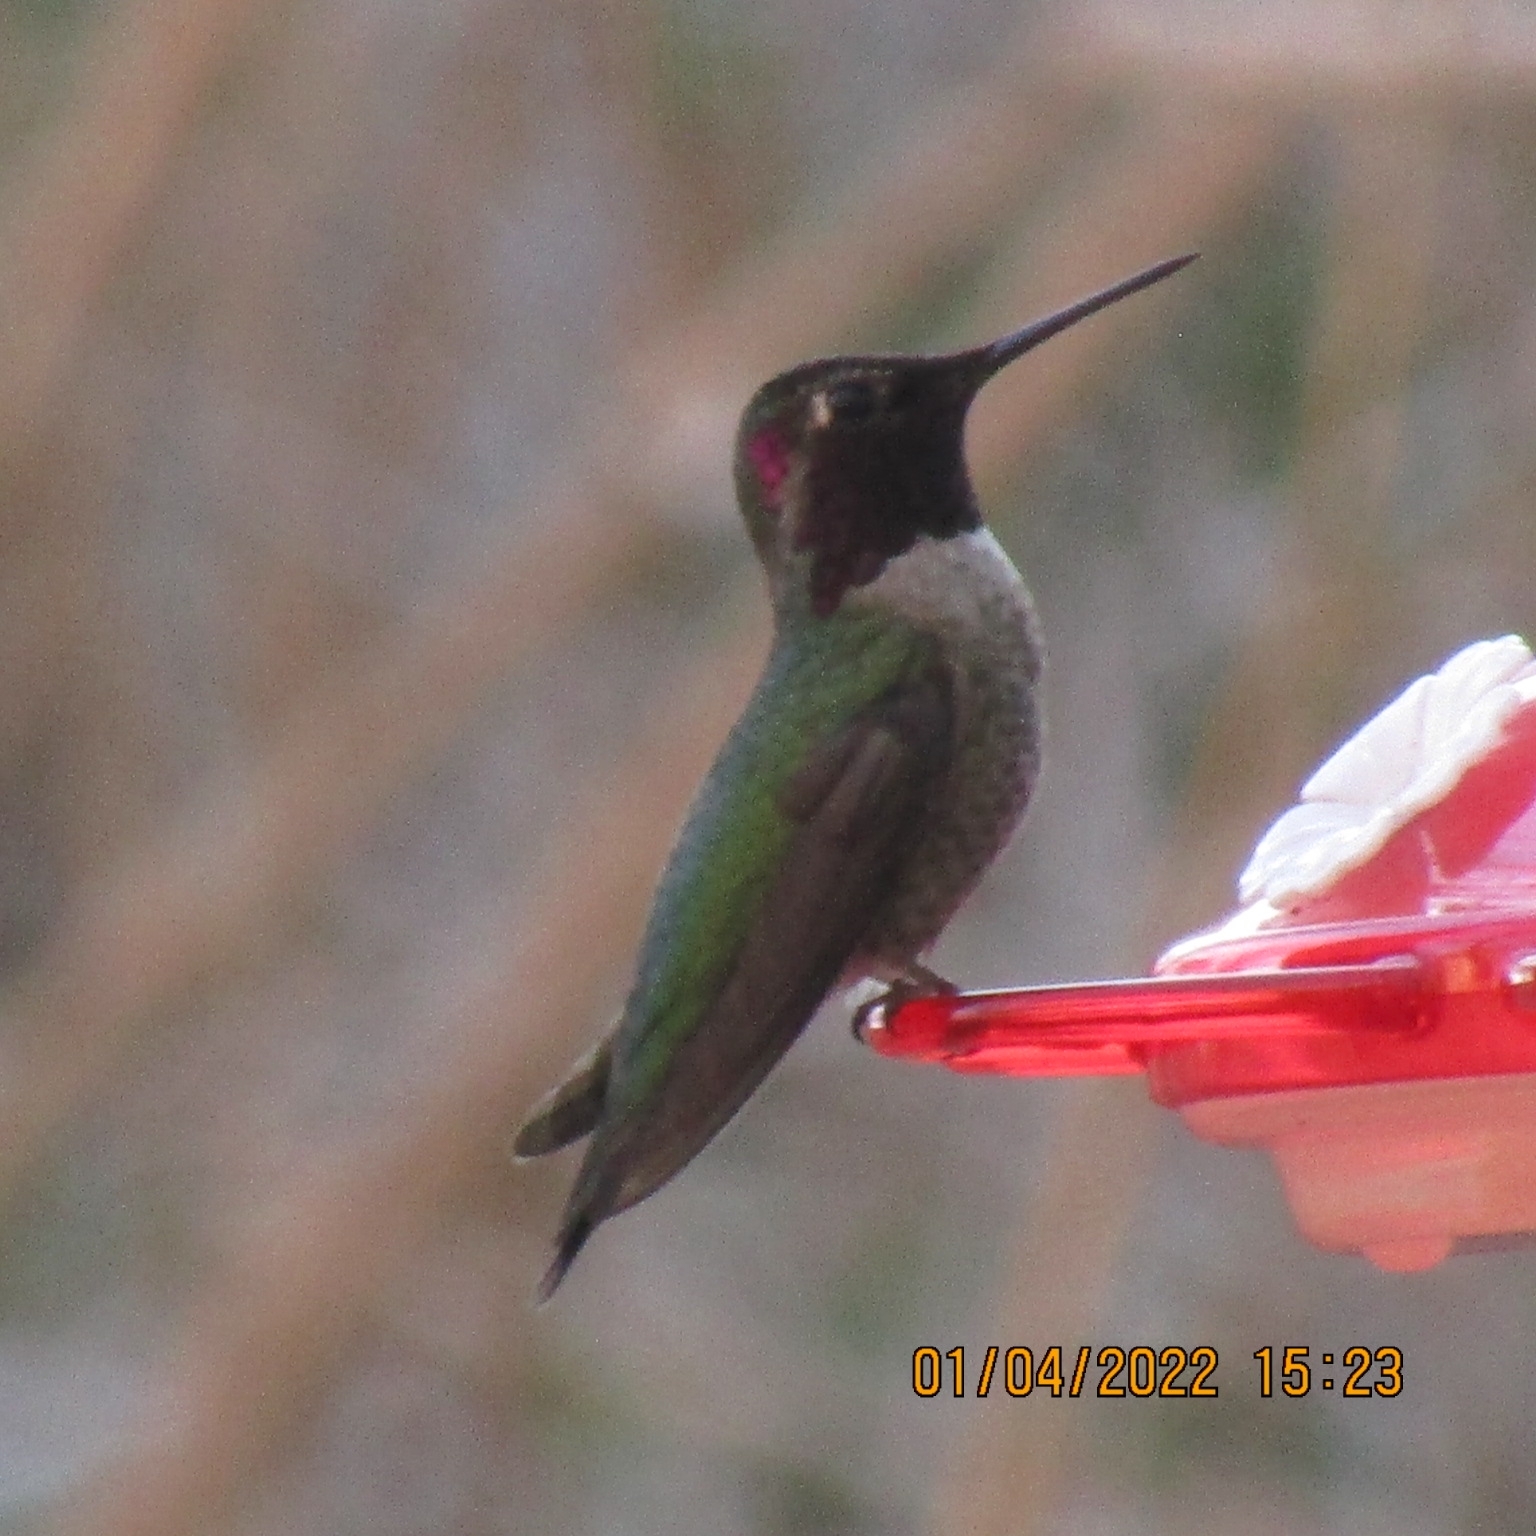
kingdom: Animalia
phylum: Chordata
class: Aves
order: Apodiformes
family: Trochilidae
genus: Calypte
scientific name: Calypte anna
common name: Anna's hummingbird
